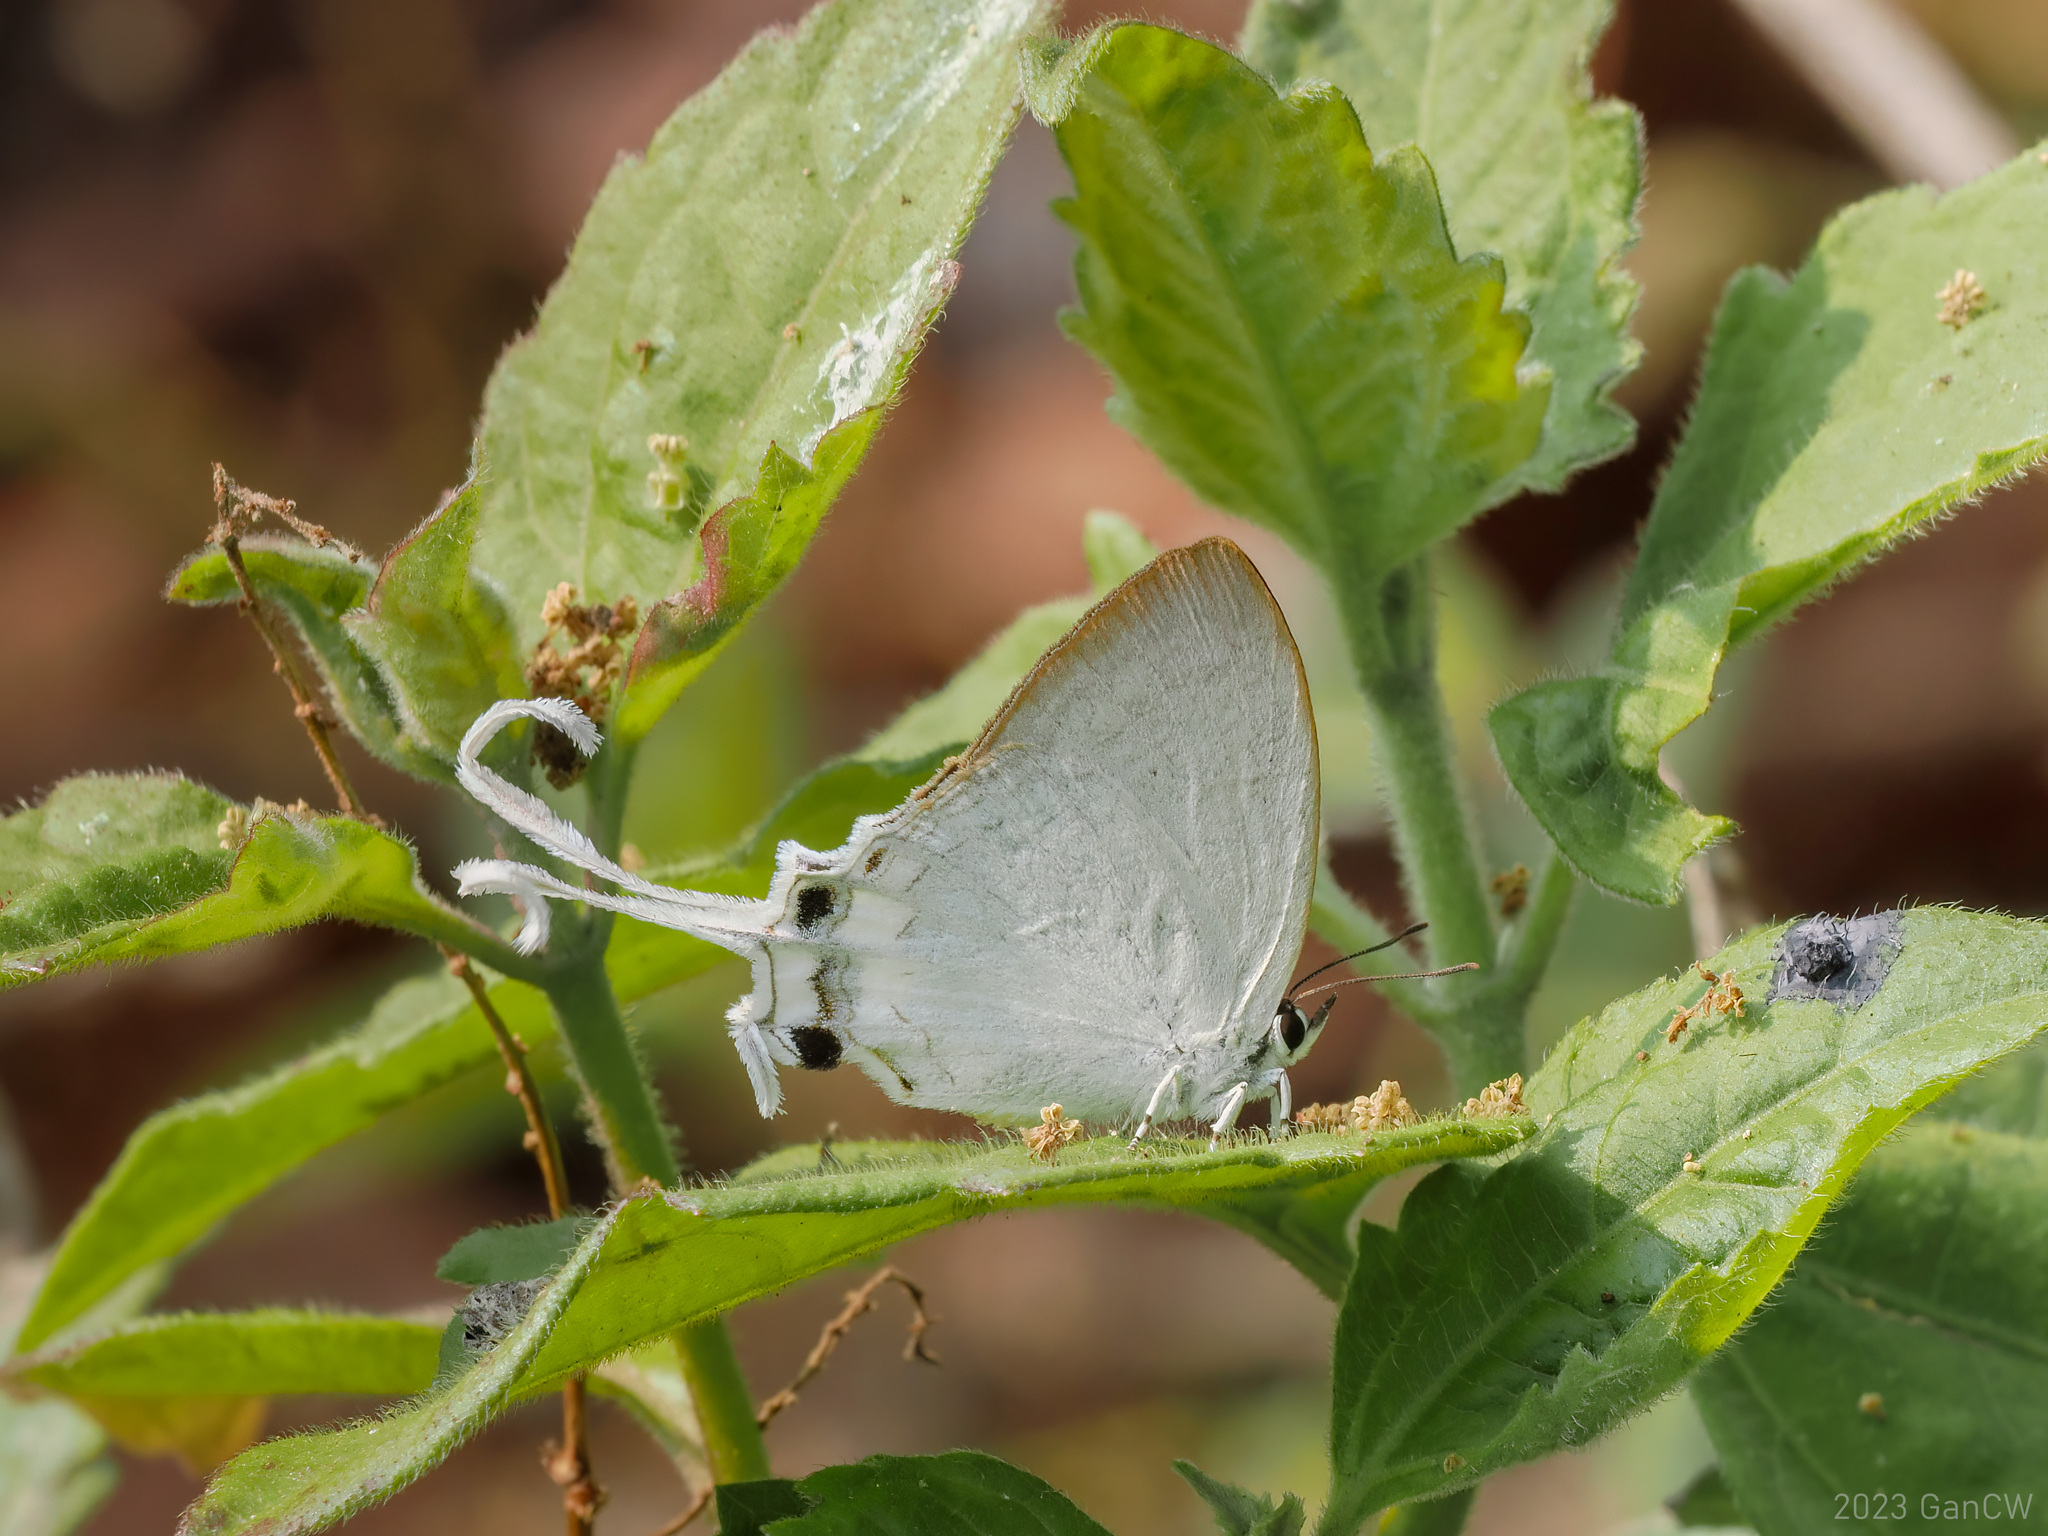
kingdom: Animalia
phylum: Arthropoda
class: Insecta
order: Lepidoptera
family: Lycaenidae
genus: Cheritra
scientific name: Cheritra freja
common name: Common imperial
